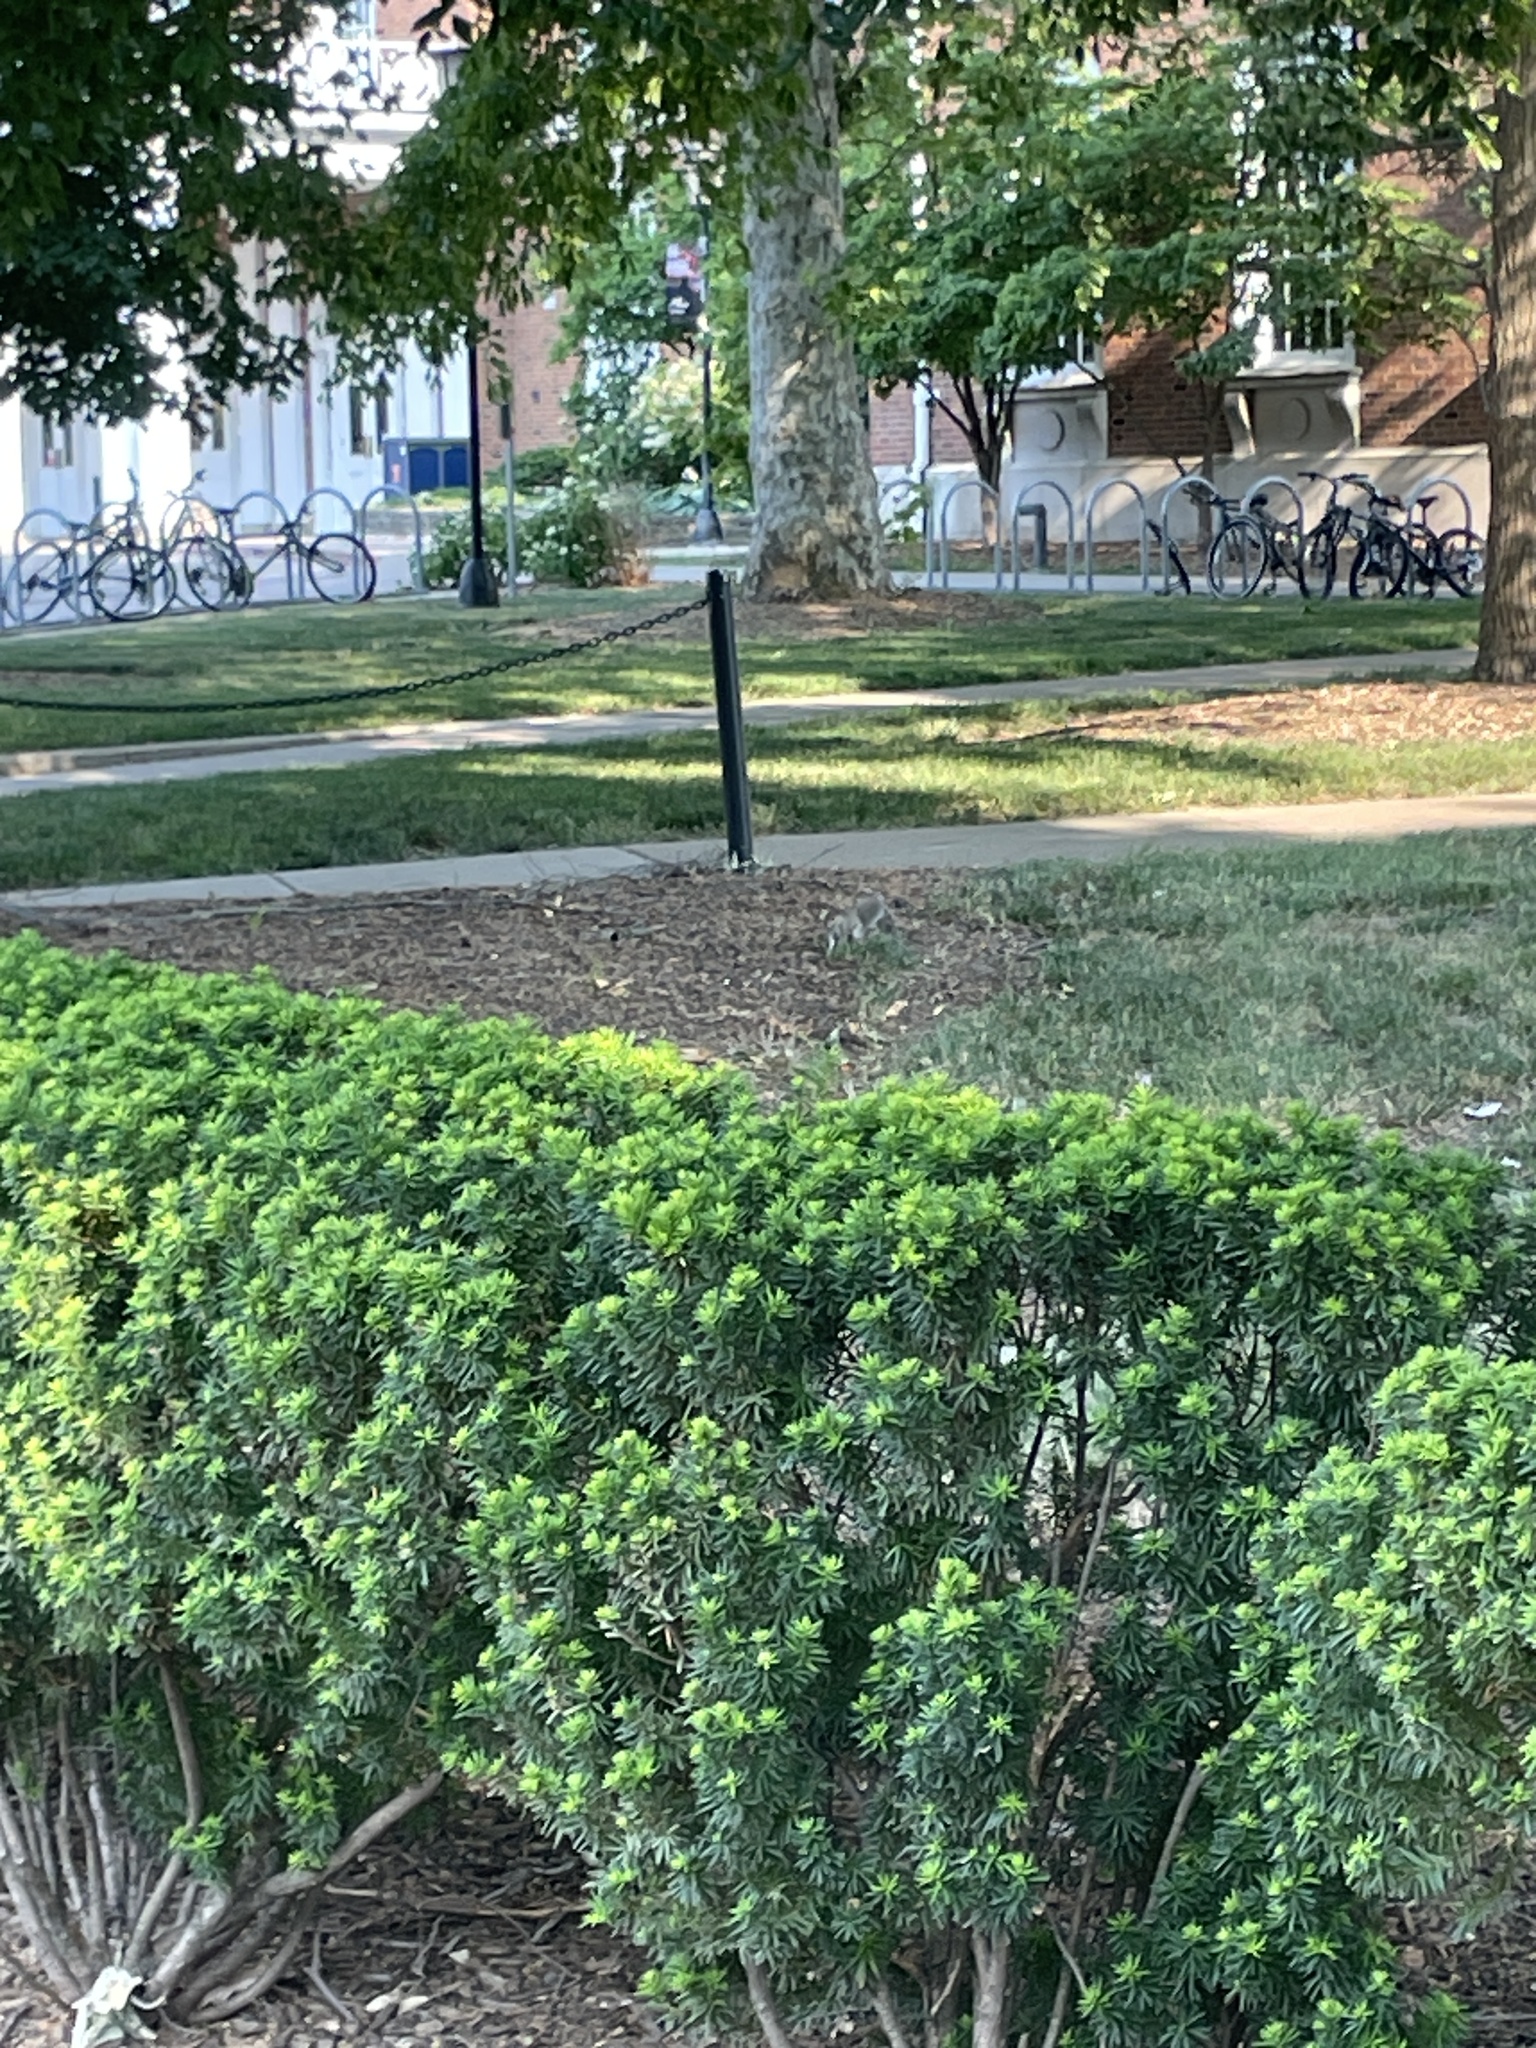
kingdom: Animalia
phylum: Chordata
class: Mammalia
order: Rodentia
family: Sciuridae
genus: Sciurus
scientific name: Sciurus carolinensis
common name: Eastern gray squirrel
